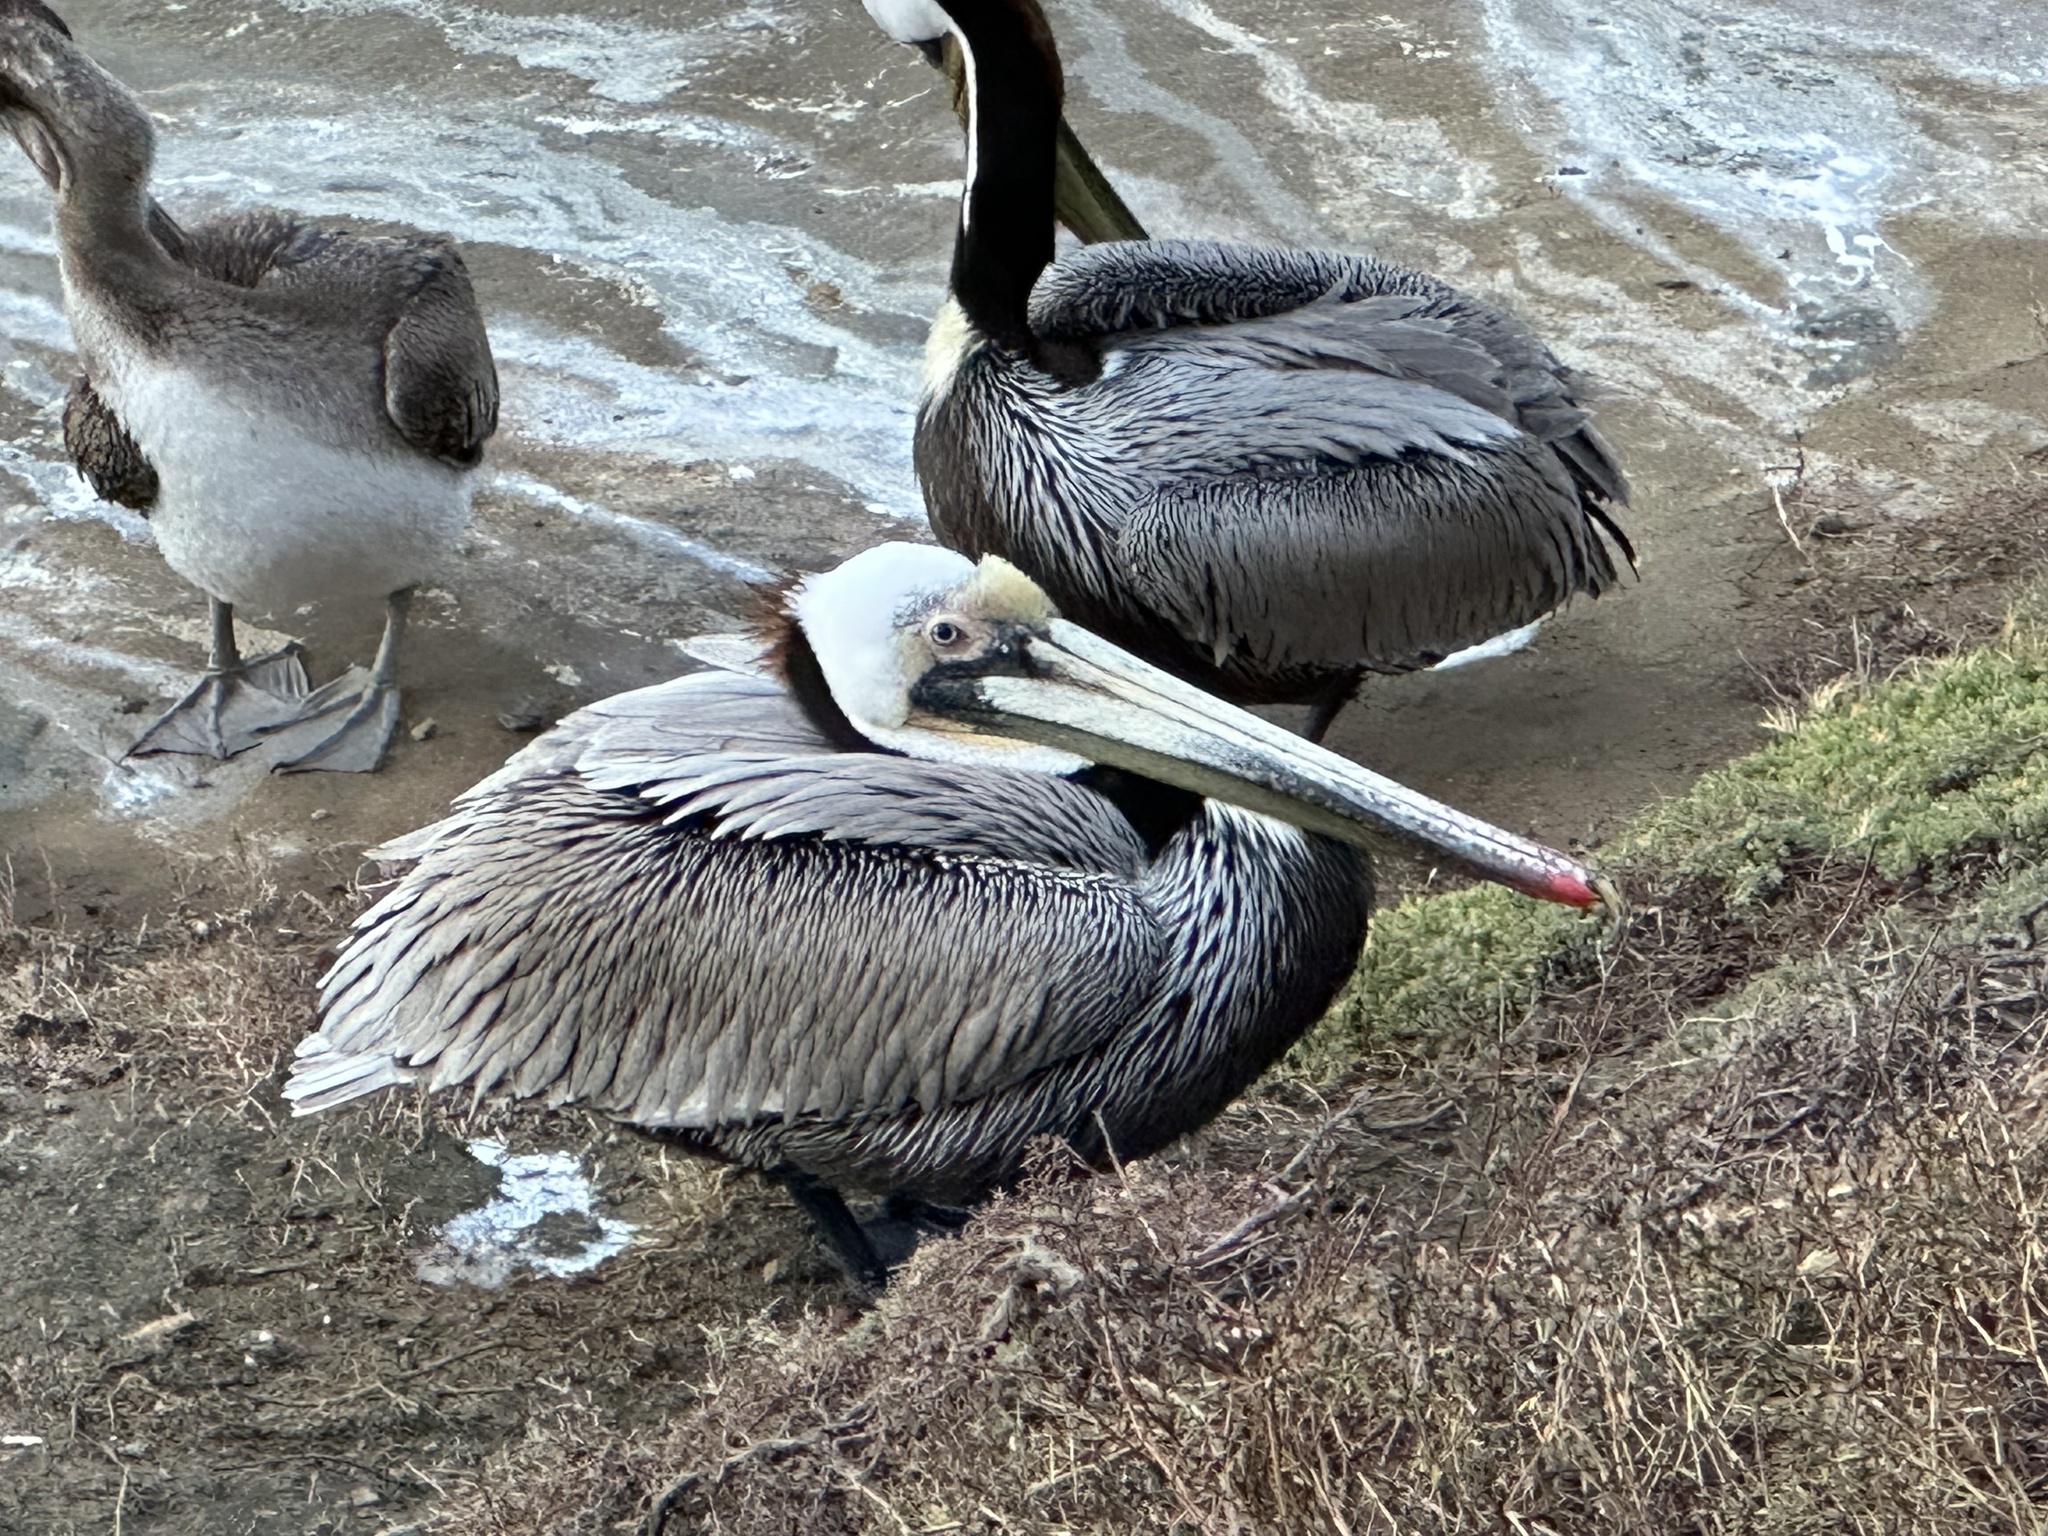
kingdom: Animalia
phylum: Chordata
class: Aves
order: Pelecaniformes
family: Pelecanidae
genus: Pelecanus
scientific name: Pelecanus occidentalis
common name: Brown pelican
